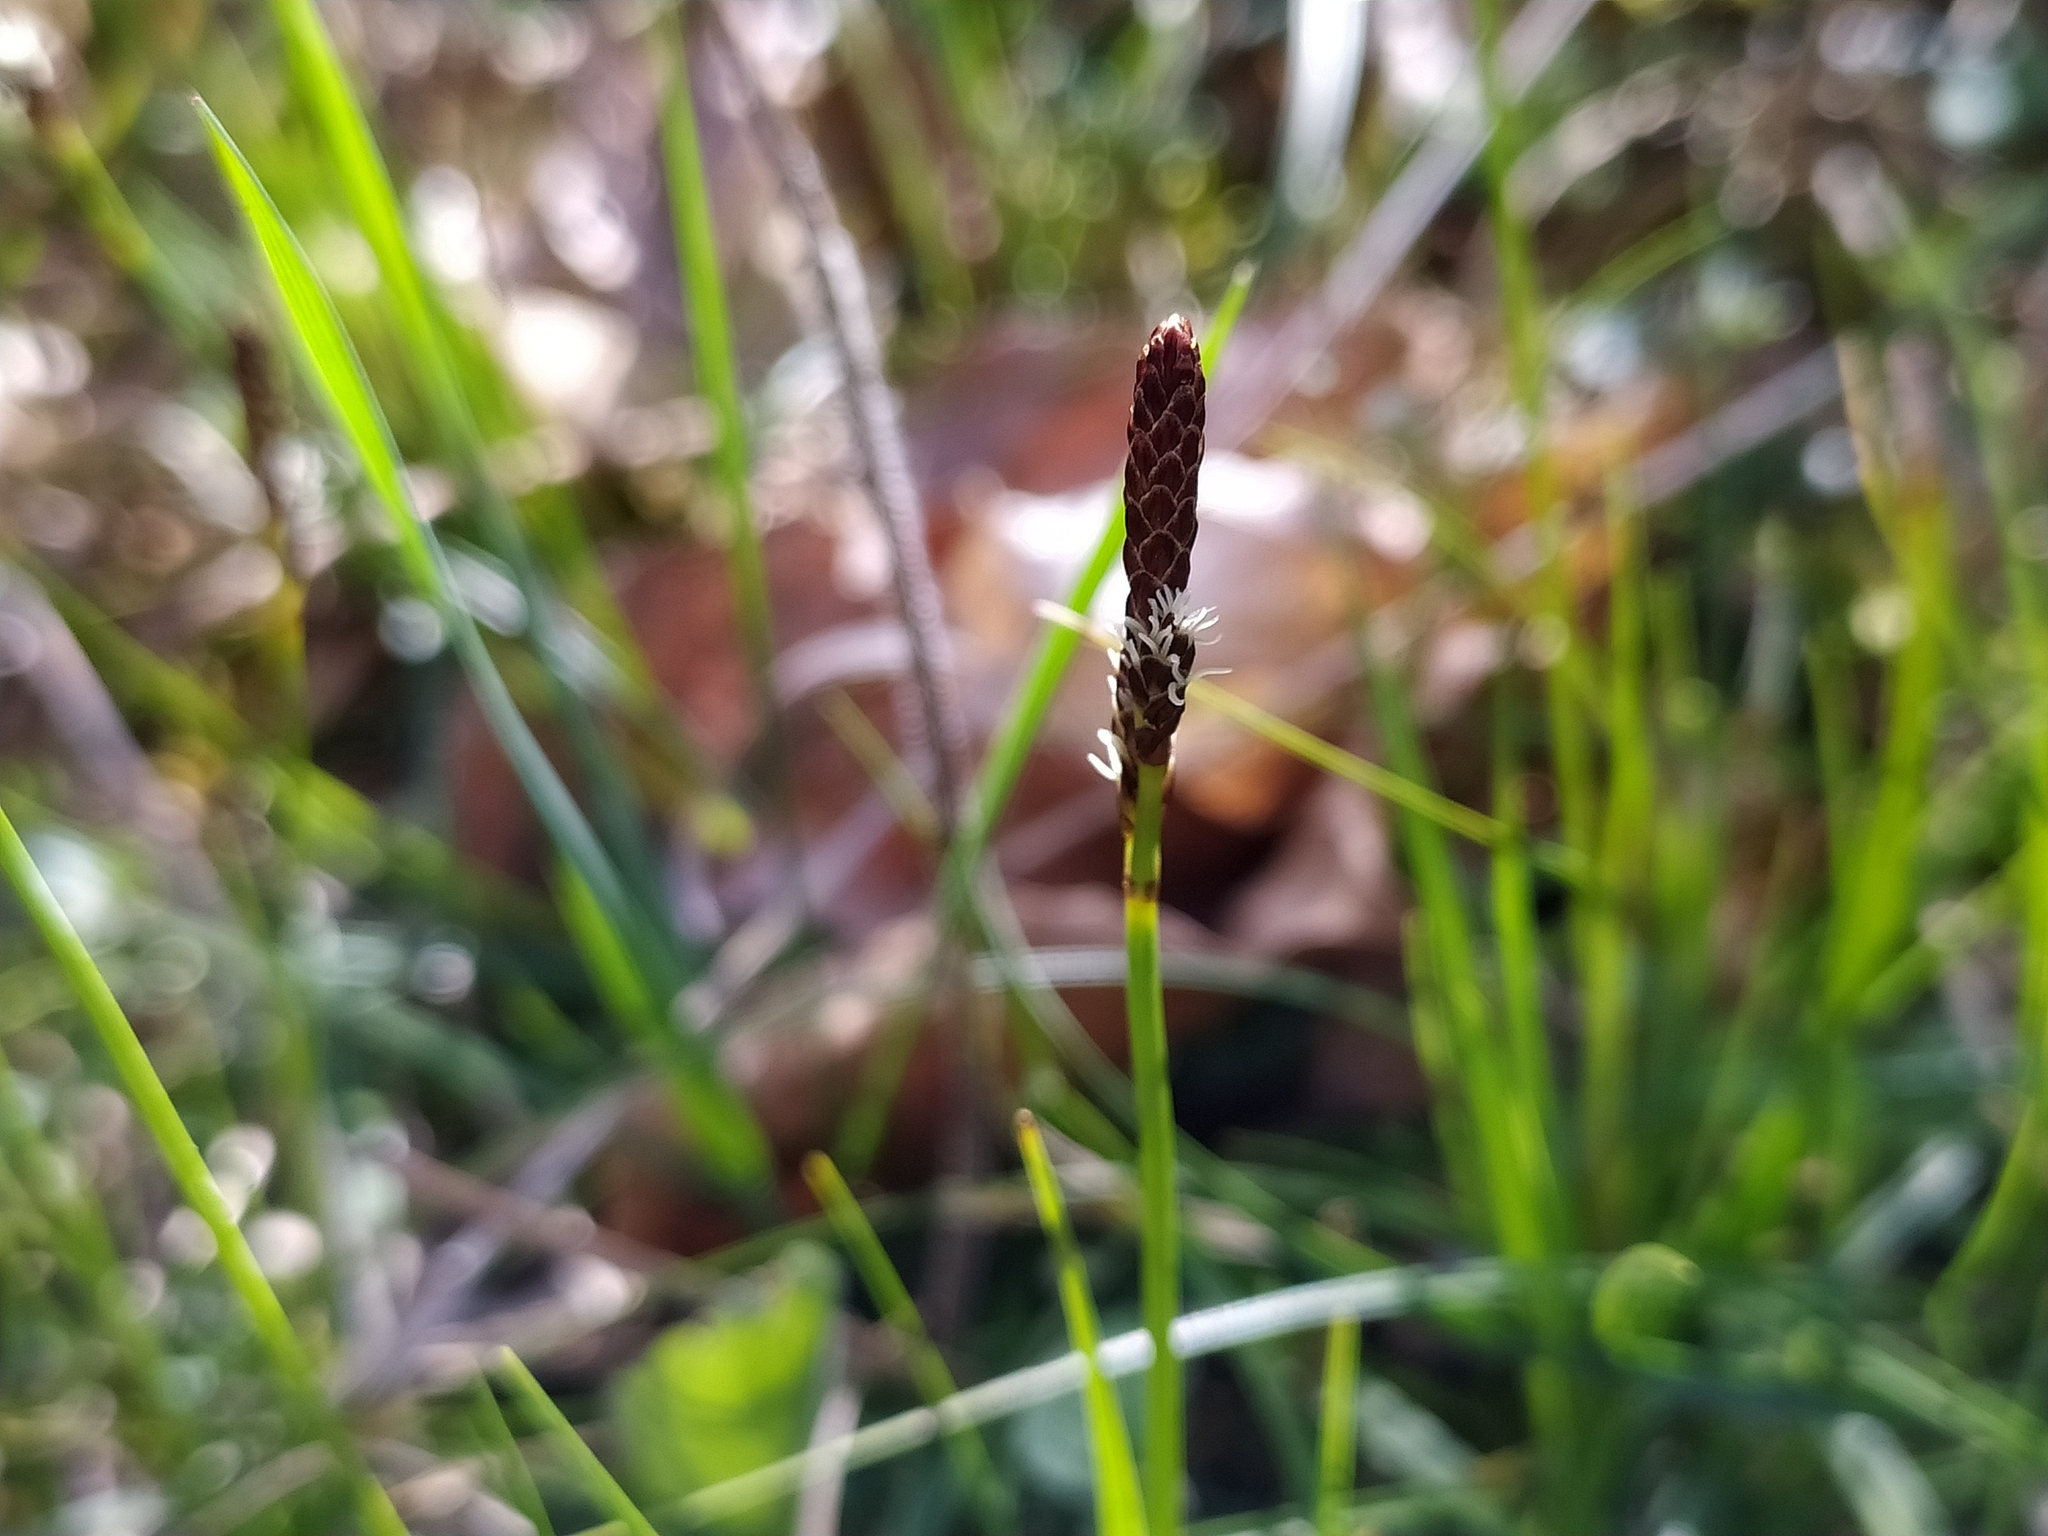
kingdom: Plantae
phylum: Tracheophyta
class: Liliopsida
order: Poales
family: Cyperaceae
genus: Carex
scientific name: Carex ericetorum
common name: Rare spring-sedge
